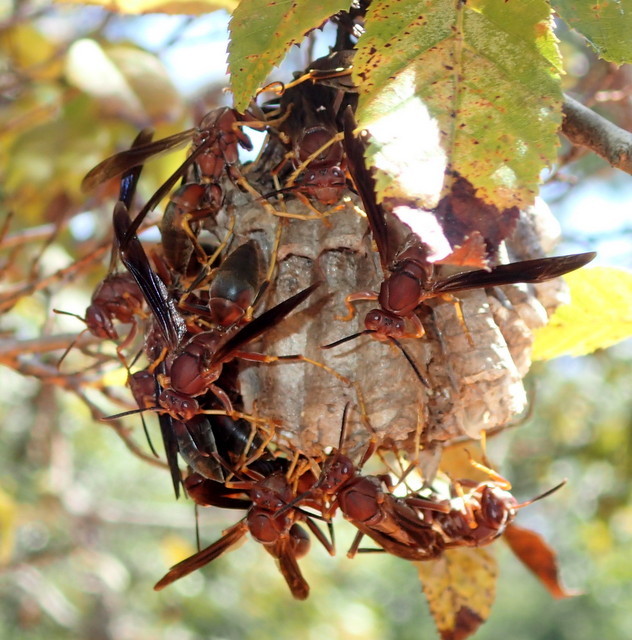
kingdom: Animalia
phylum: Arthropoda
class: Insecta
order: Hymenoptera
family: Eumenidae
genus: Polistes
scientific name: Polistes metricus
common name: Metric paper wasp
